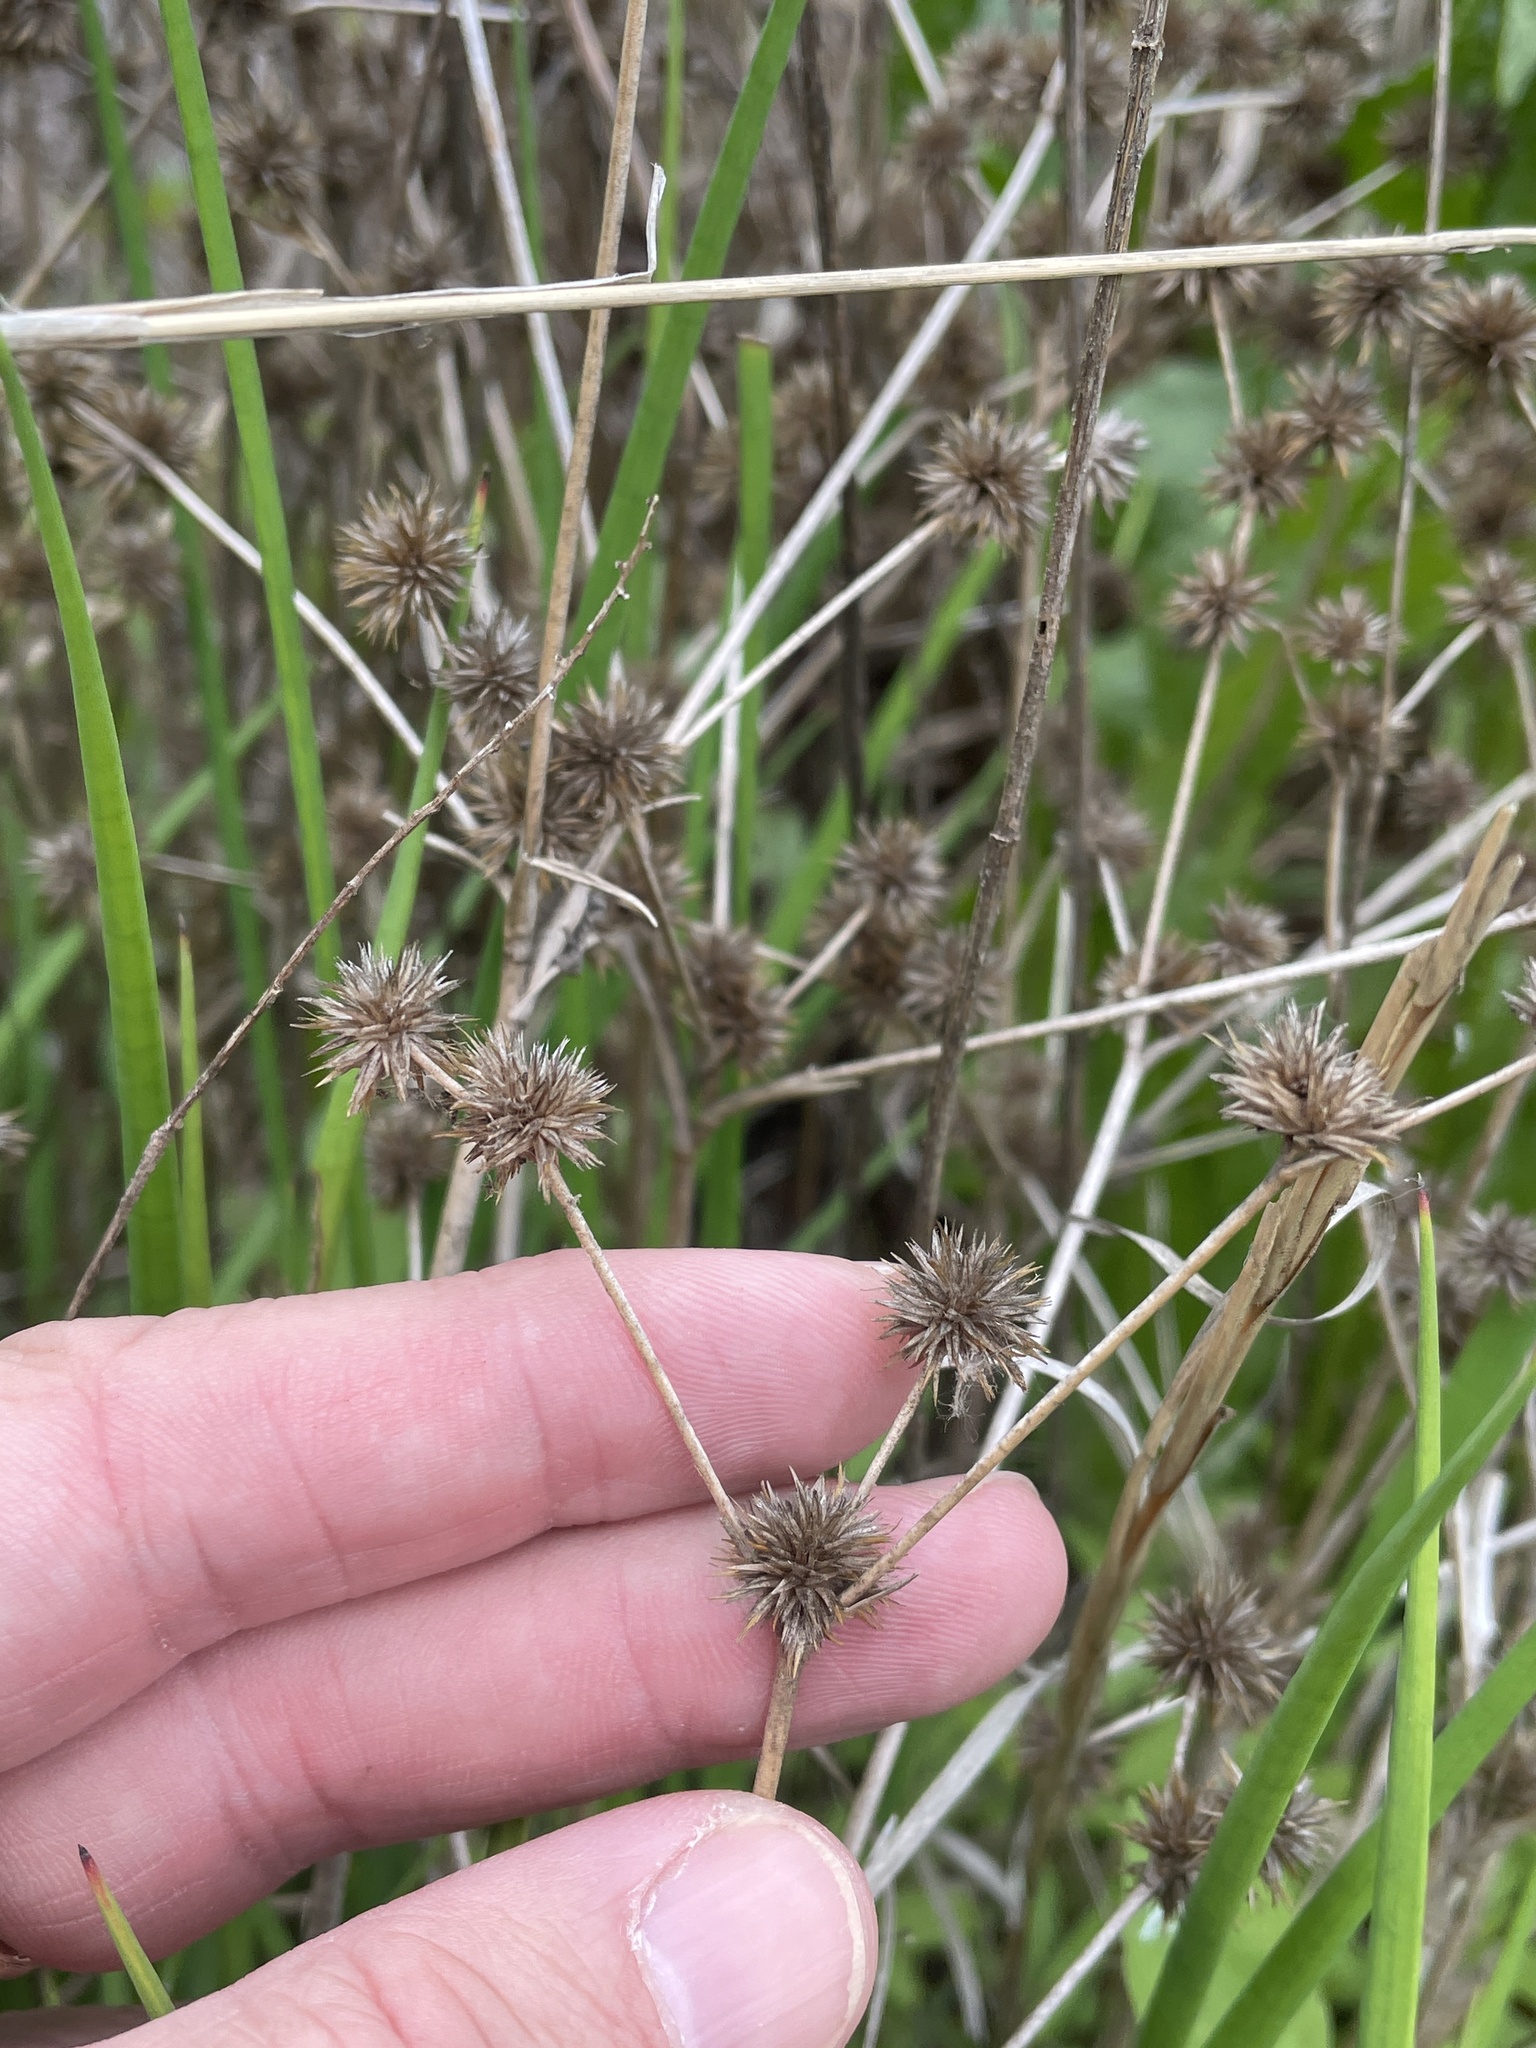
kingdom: Plantae
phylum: Tracheophyta
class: Liliopsida
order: Poales
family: Juncaceae
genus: Juncus
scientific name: Juncus validus
